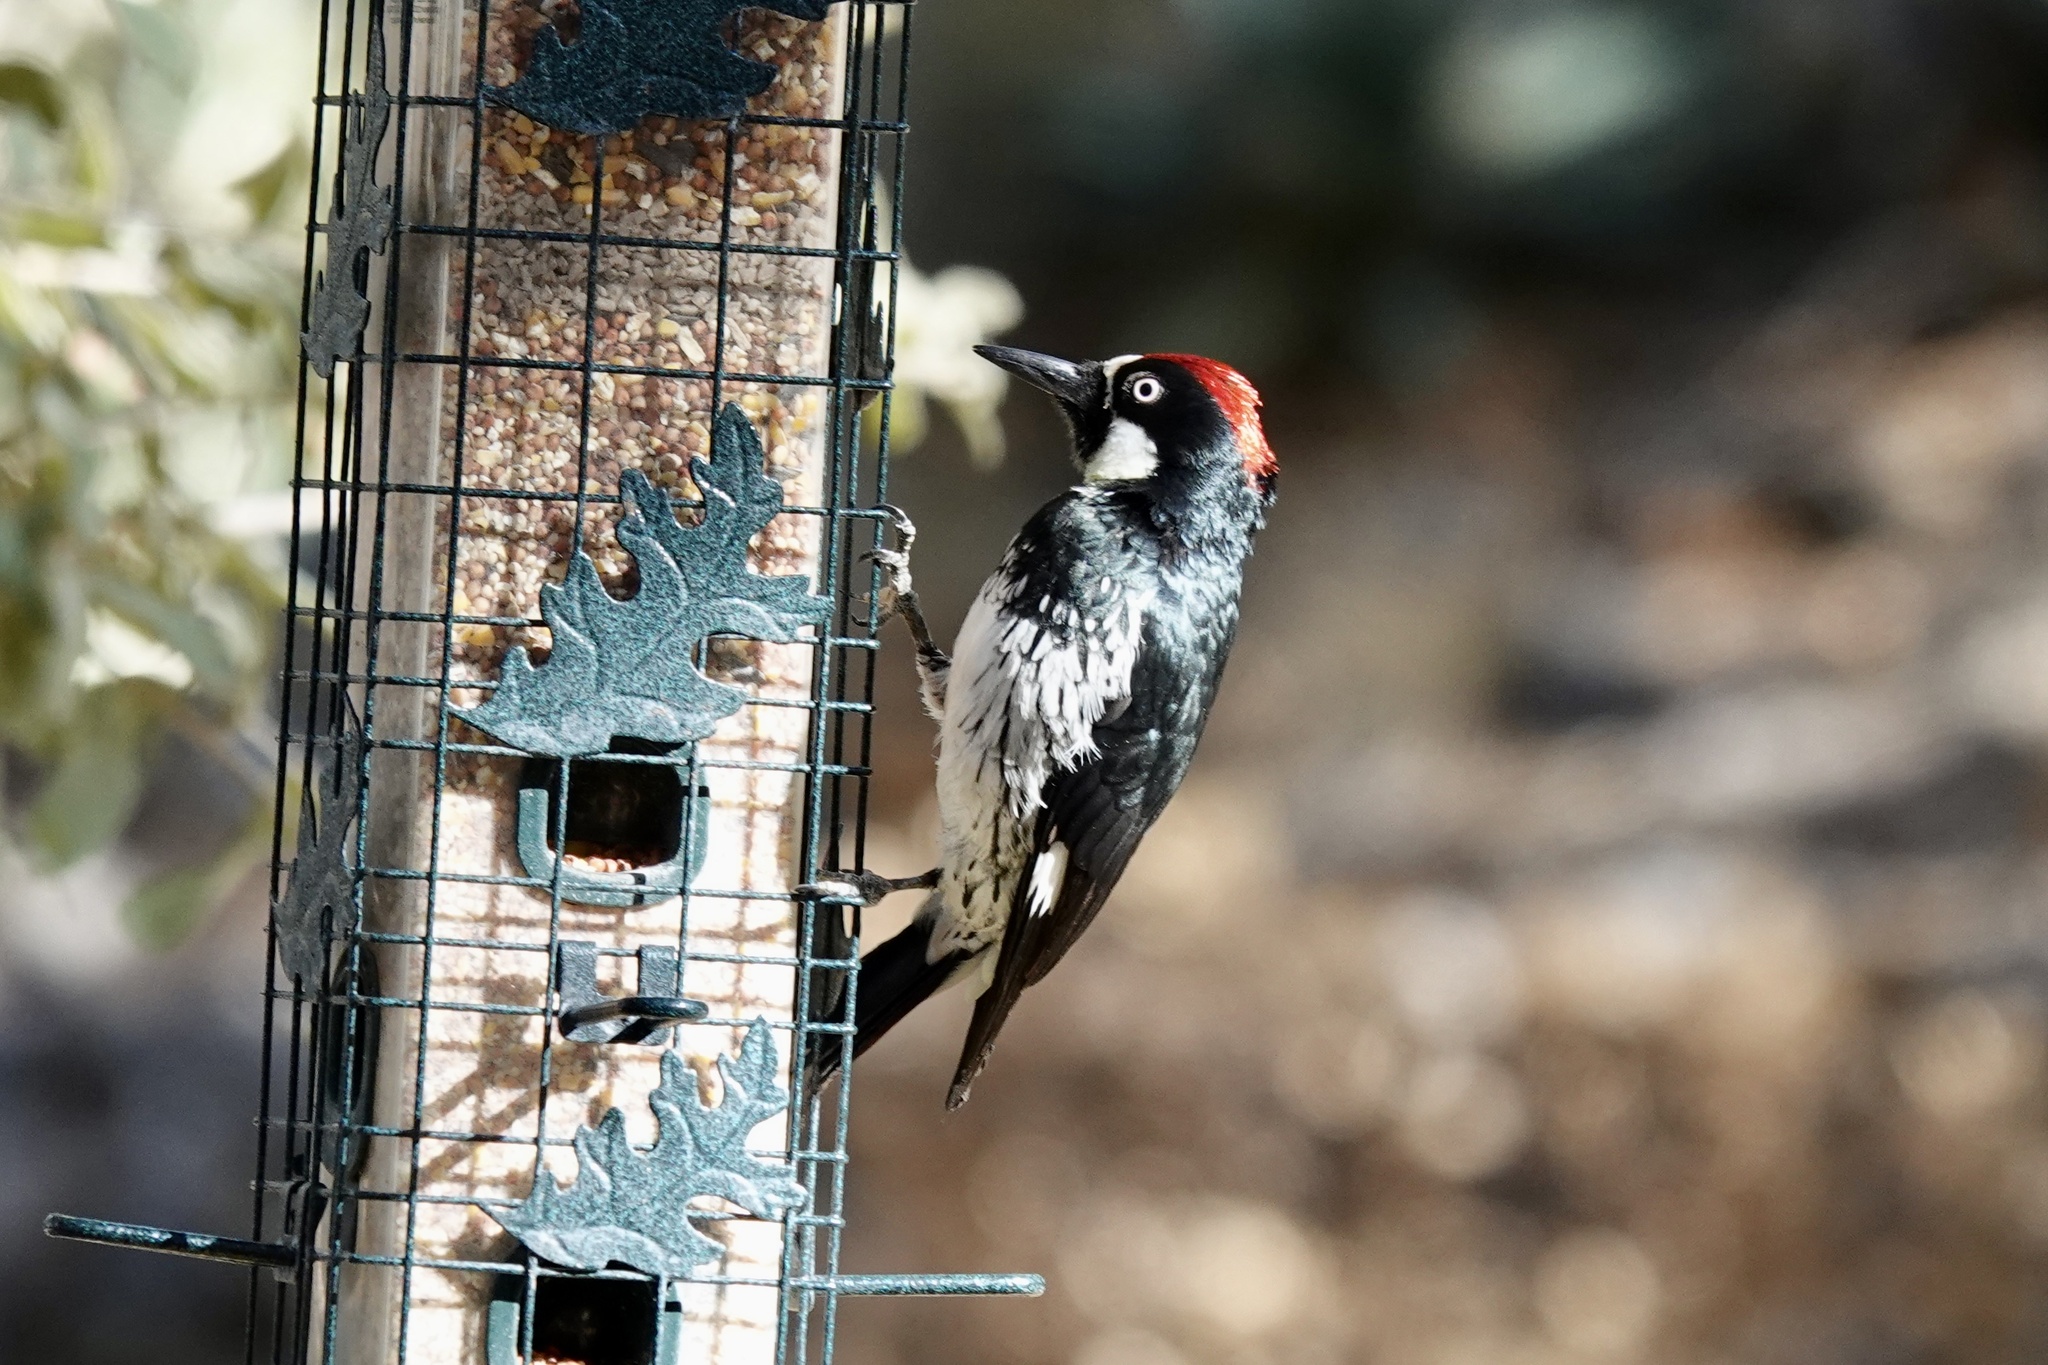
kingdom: Animalia
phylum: Chordata
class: Aves
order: Piciformes
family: Picidae
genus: Melanerpes
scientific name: Melanerpes formicivorus
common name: Acorn woodpecker
